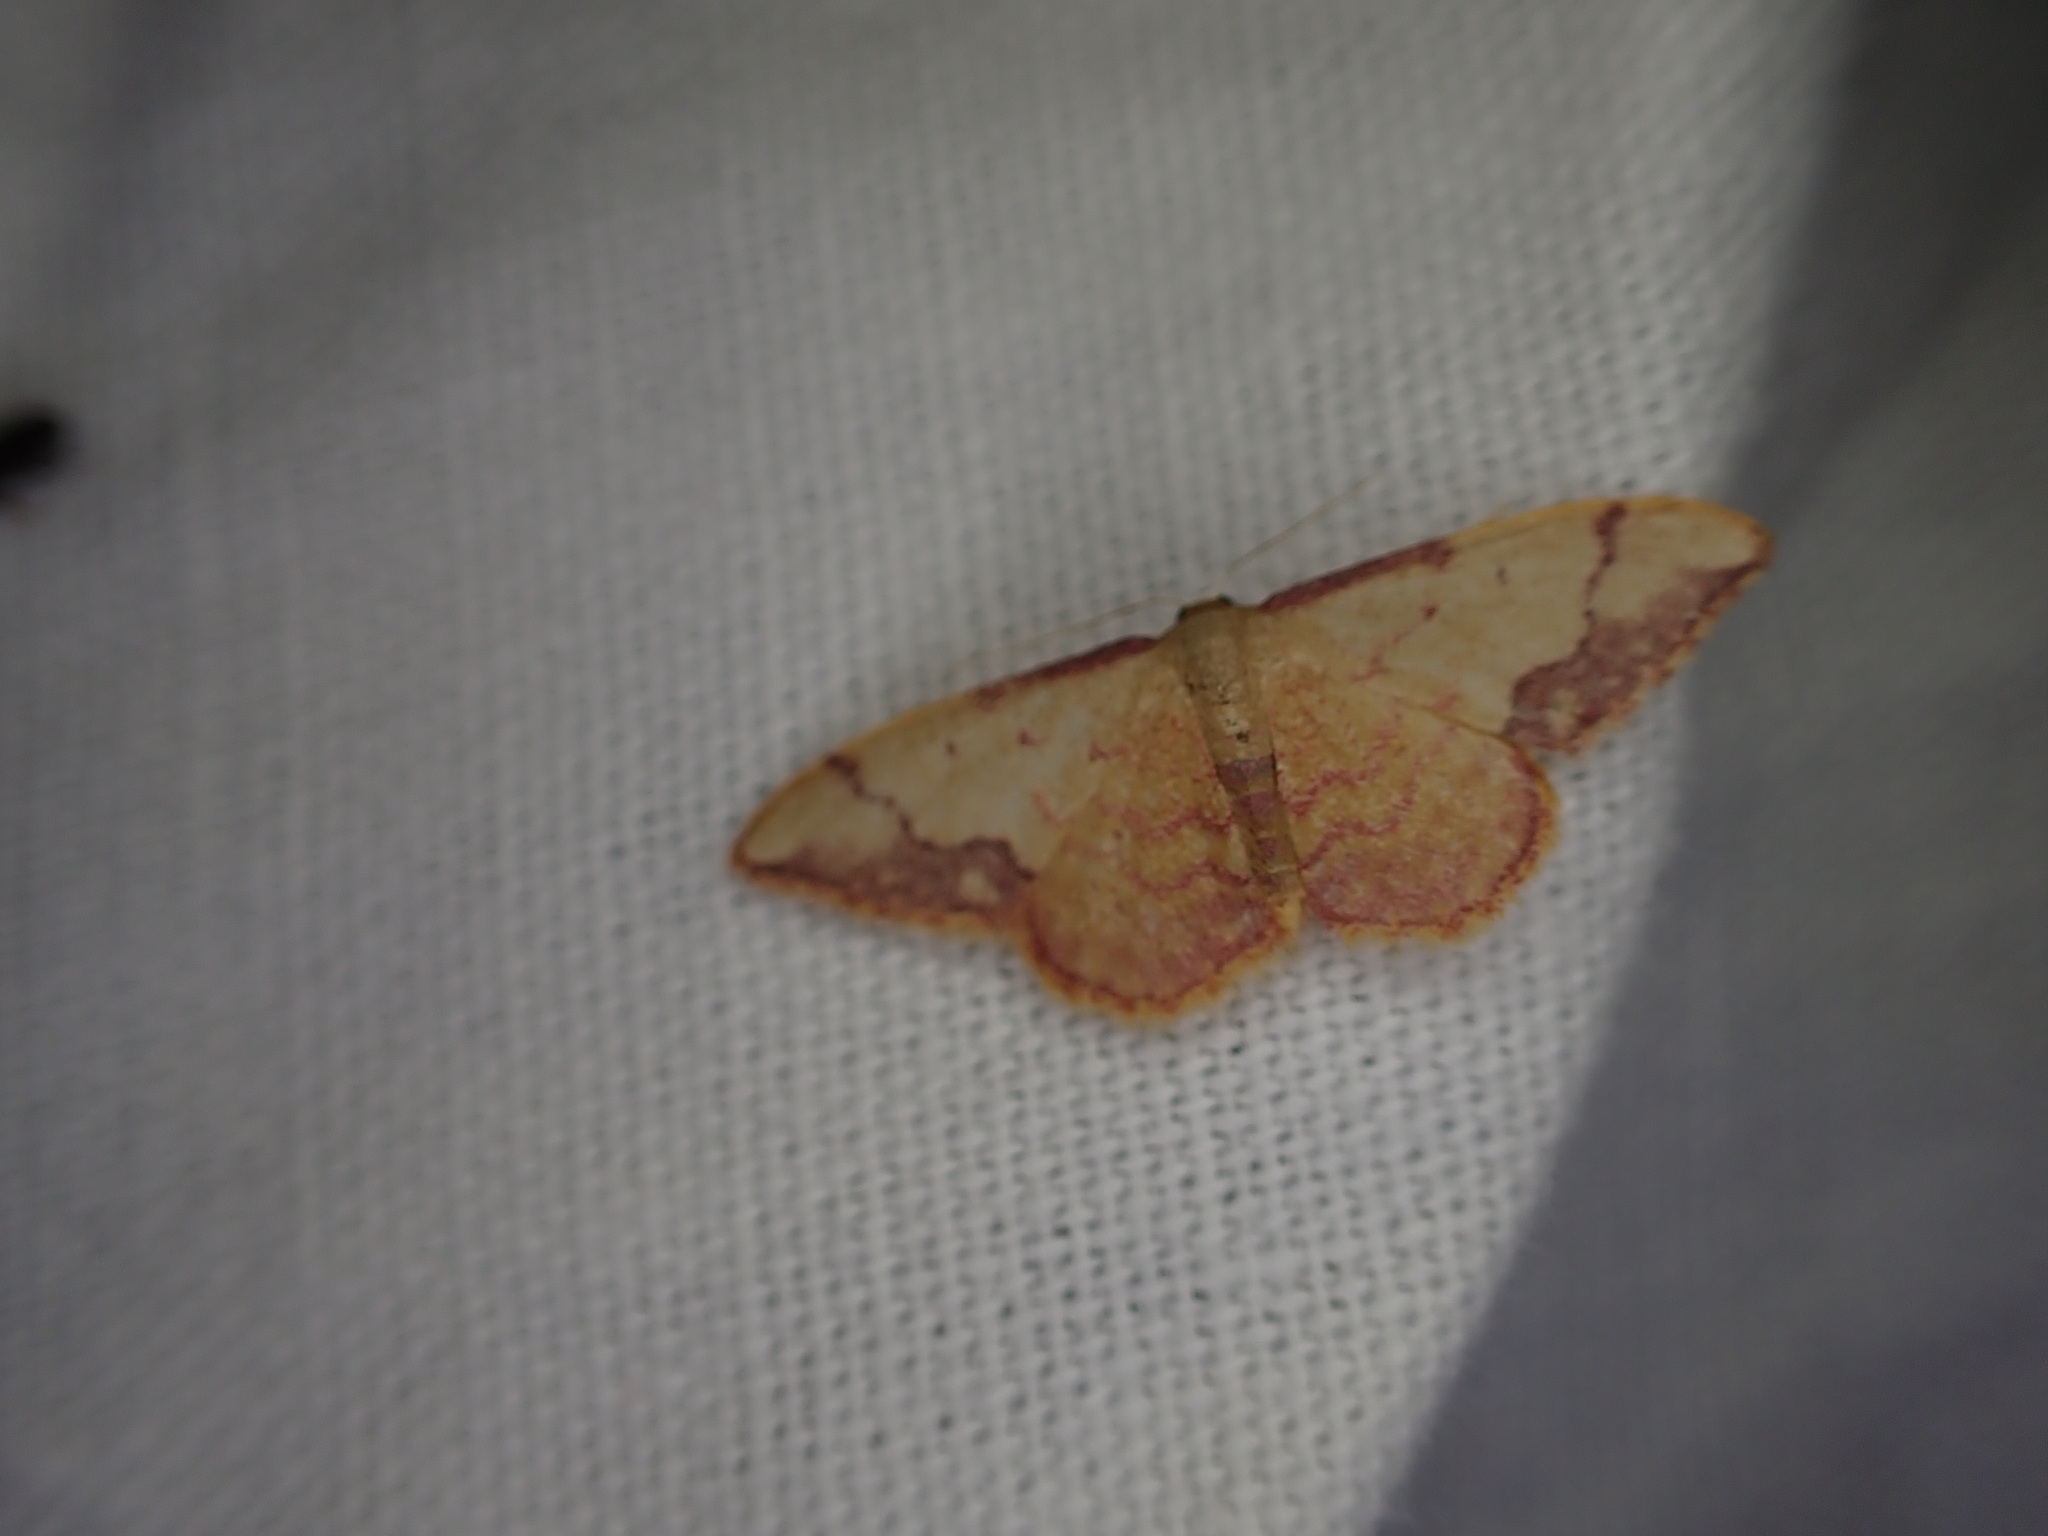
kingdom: Animalia
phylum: Arthropoda
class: Insecta
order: Lepidoptera
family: Geometridae
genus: Idaea
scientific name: Idaea ostrinaria
